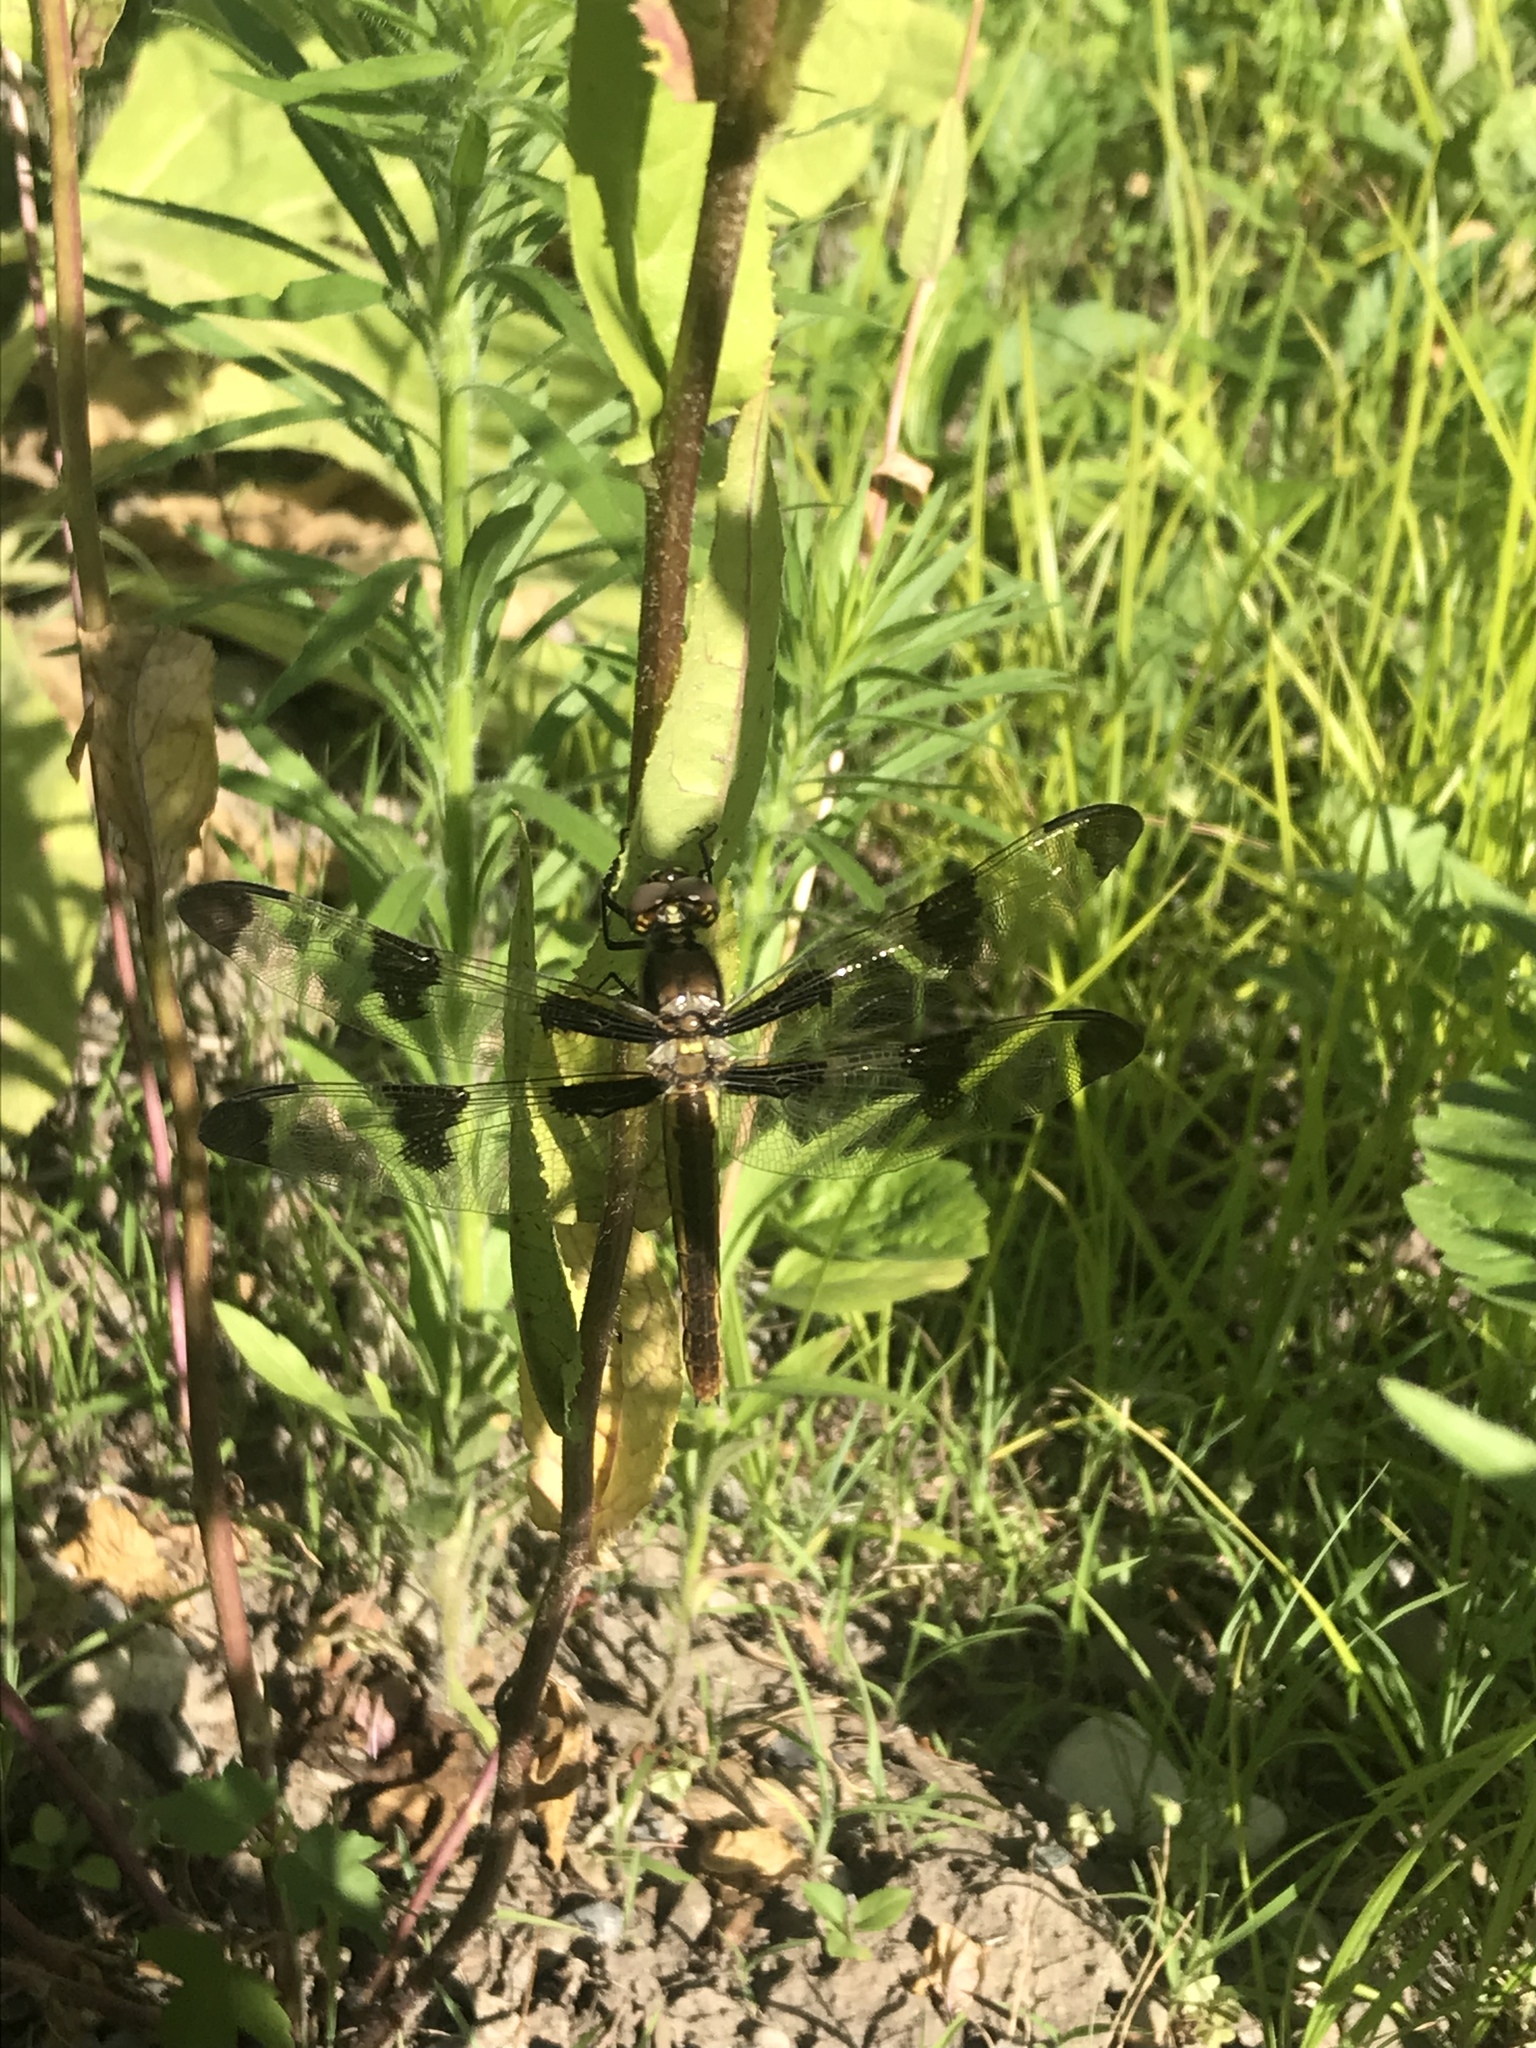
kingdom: Animalia
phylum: Arthropoda
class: Insecta
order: Odonata
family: Libellulidae
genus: Libellula
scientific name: Libellula pulchella
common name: Twelve-spotted skimmer
